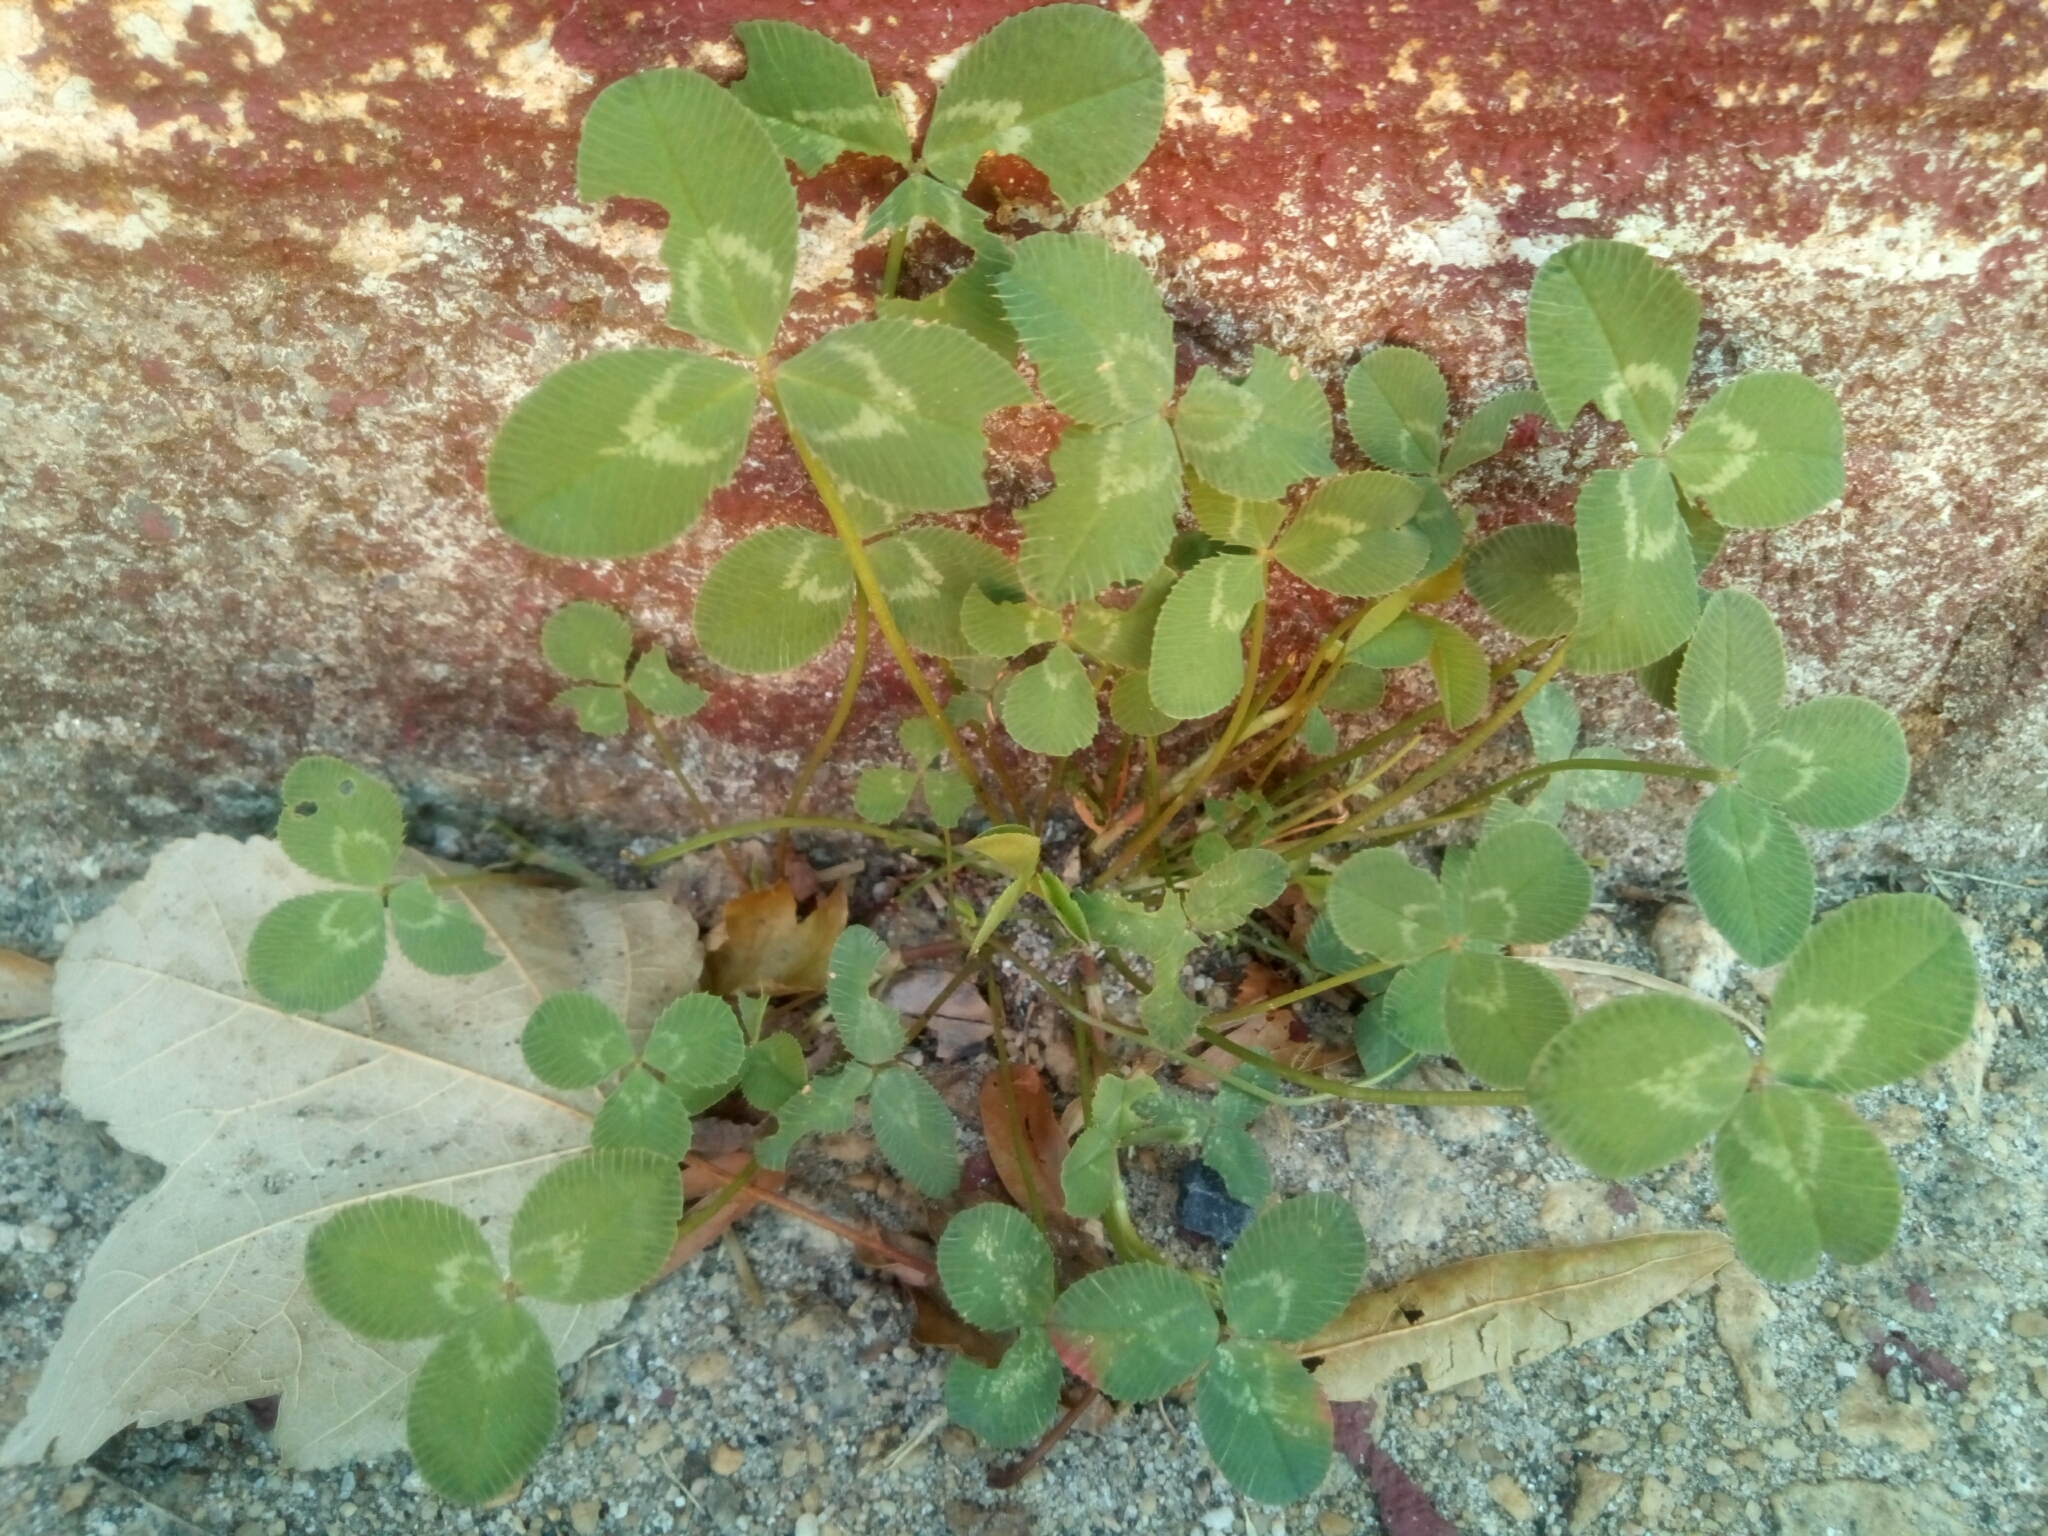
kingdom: Plantae
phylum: Tracheophyta
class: Magnoliopsida
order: Fabales
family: Fabaceae
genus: Trifolium
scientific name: Trifolium repens
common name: White clover
